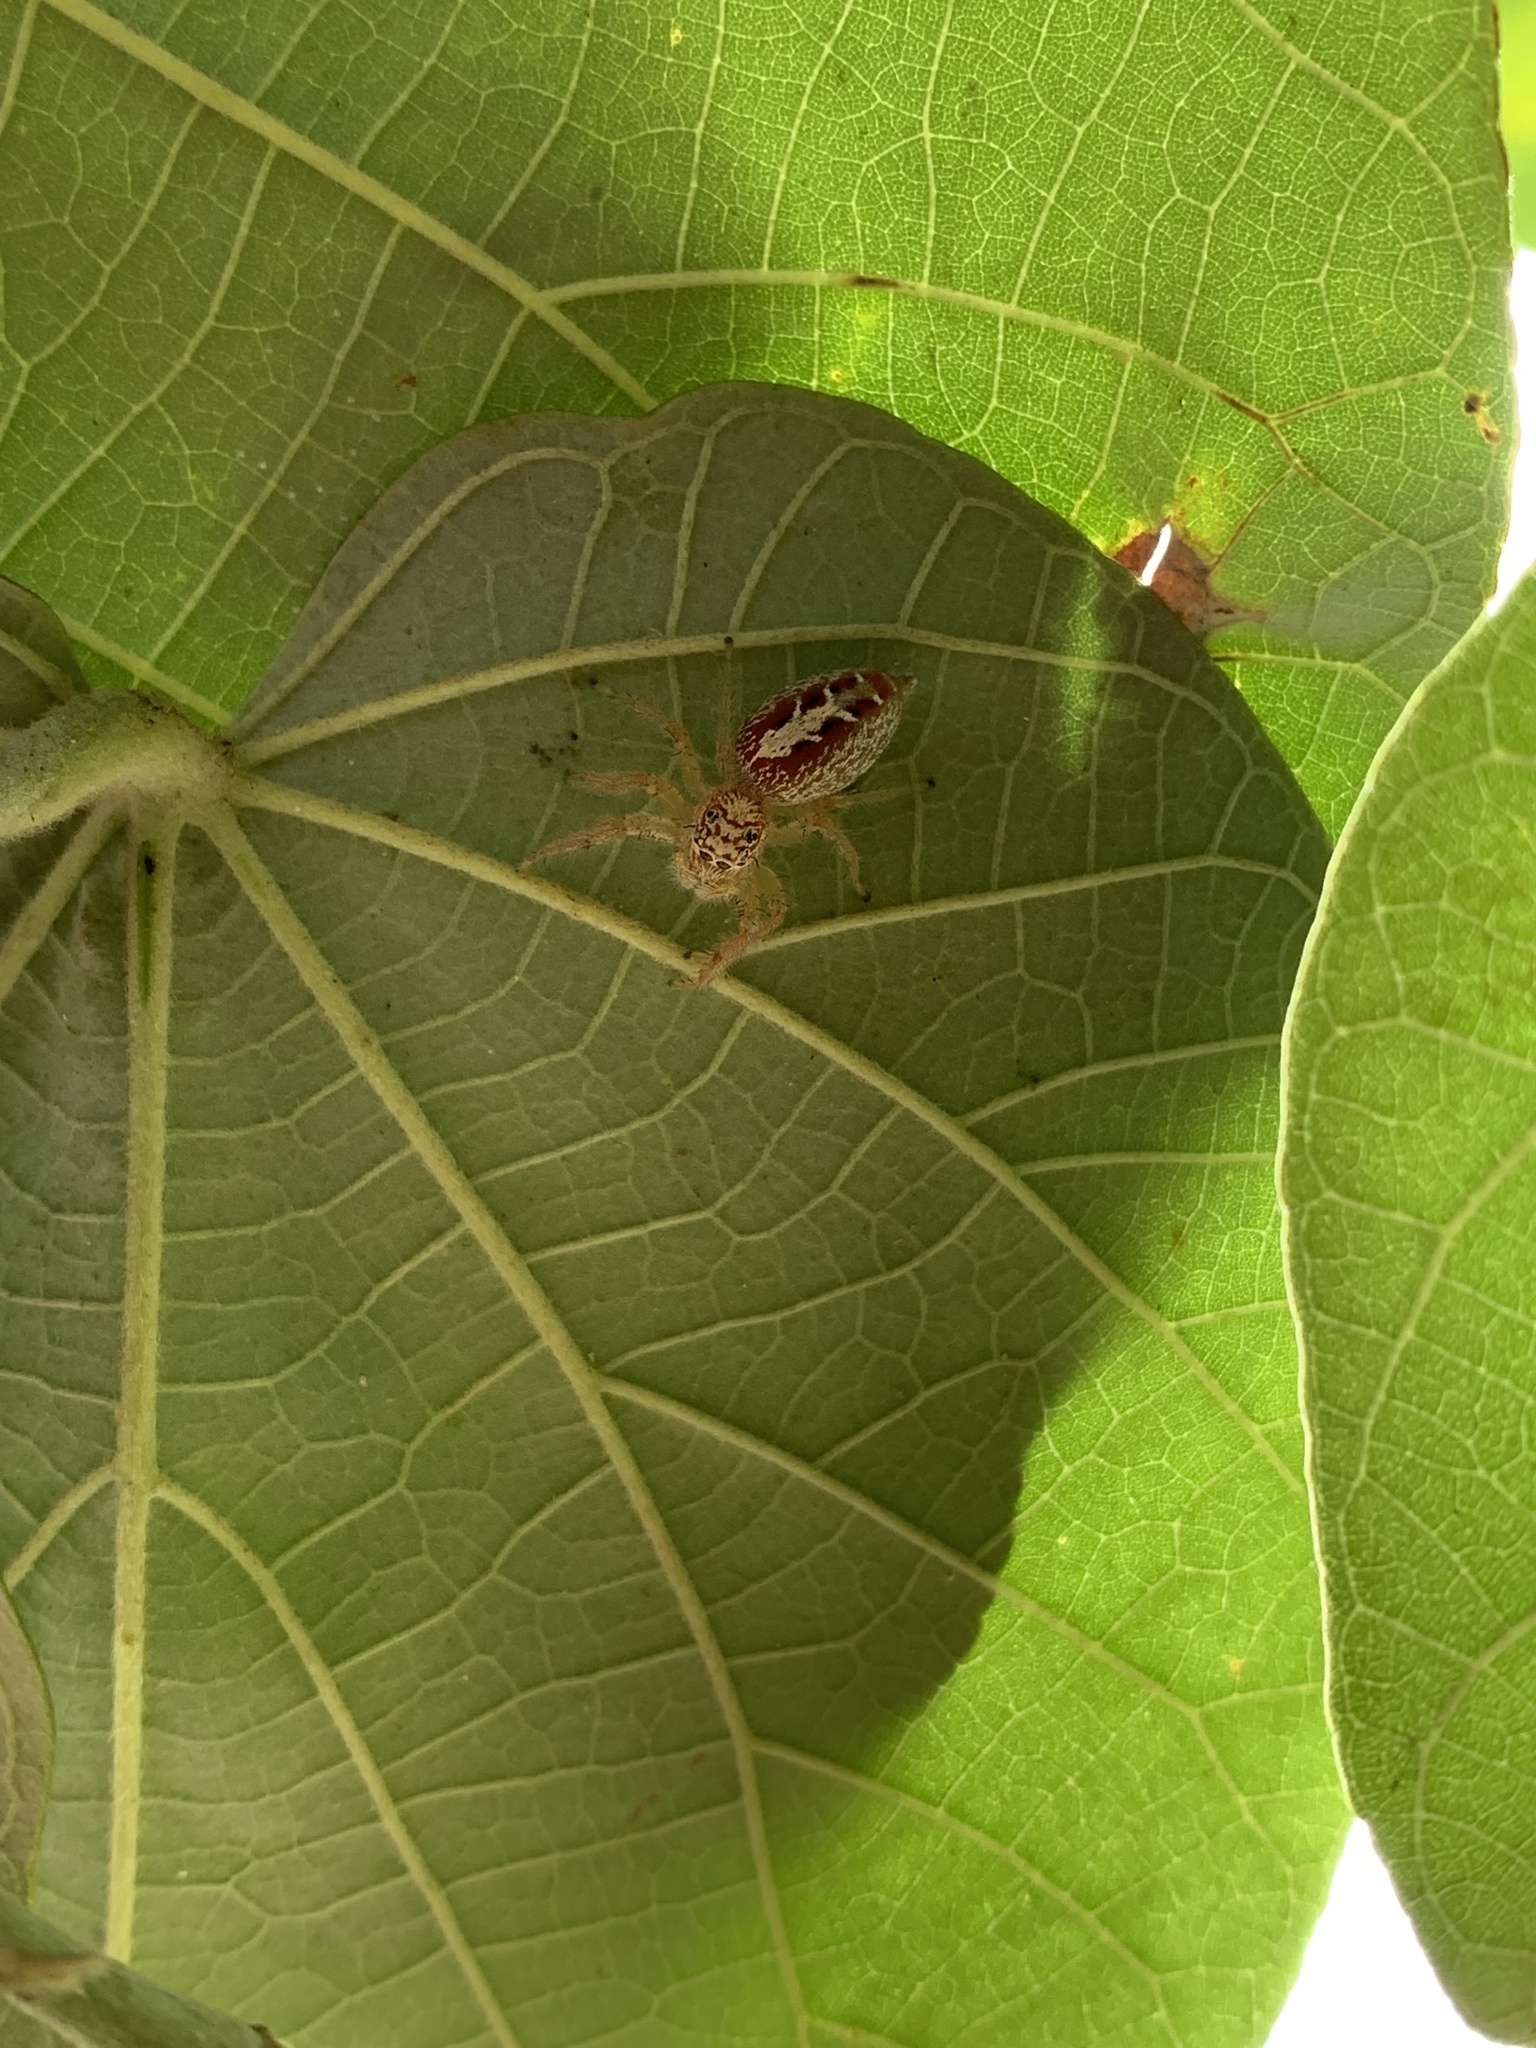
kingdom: Animalia
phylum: Arthropoda
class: Arachnida
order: Araneae
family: Salticidae
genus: Thyene
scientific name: Thyene coccineovittata
